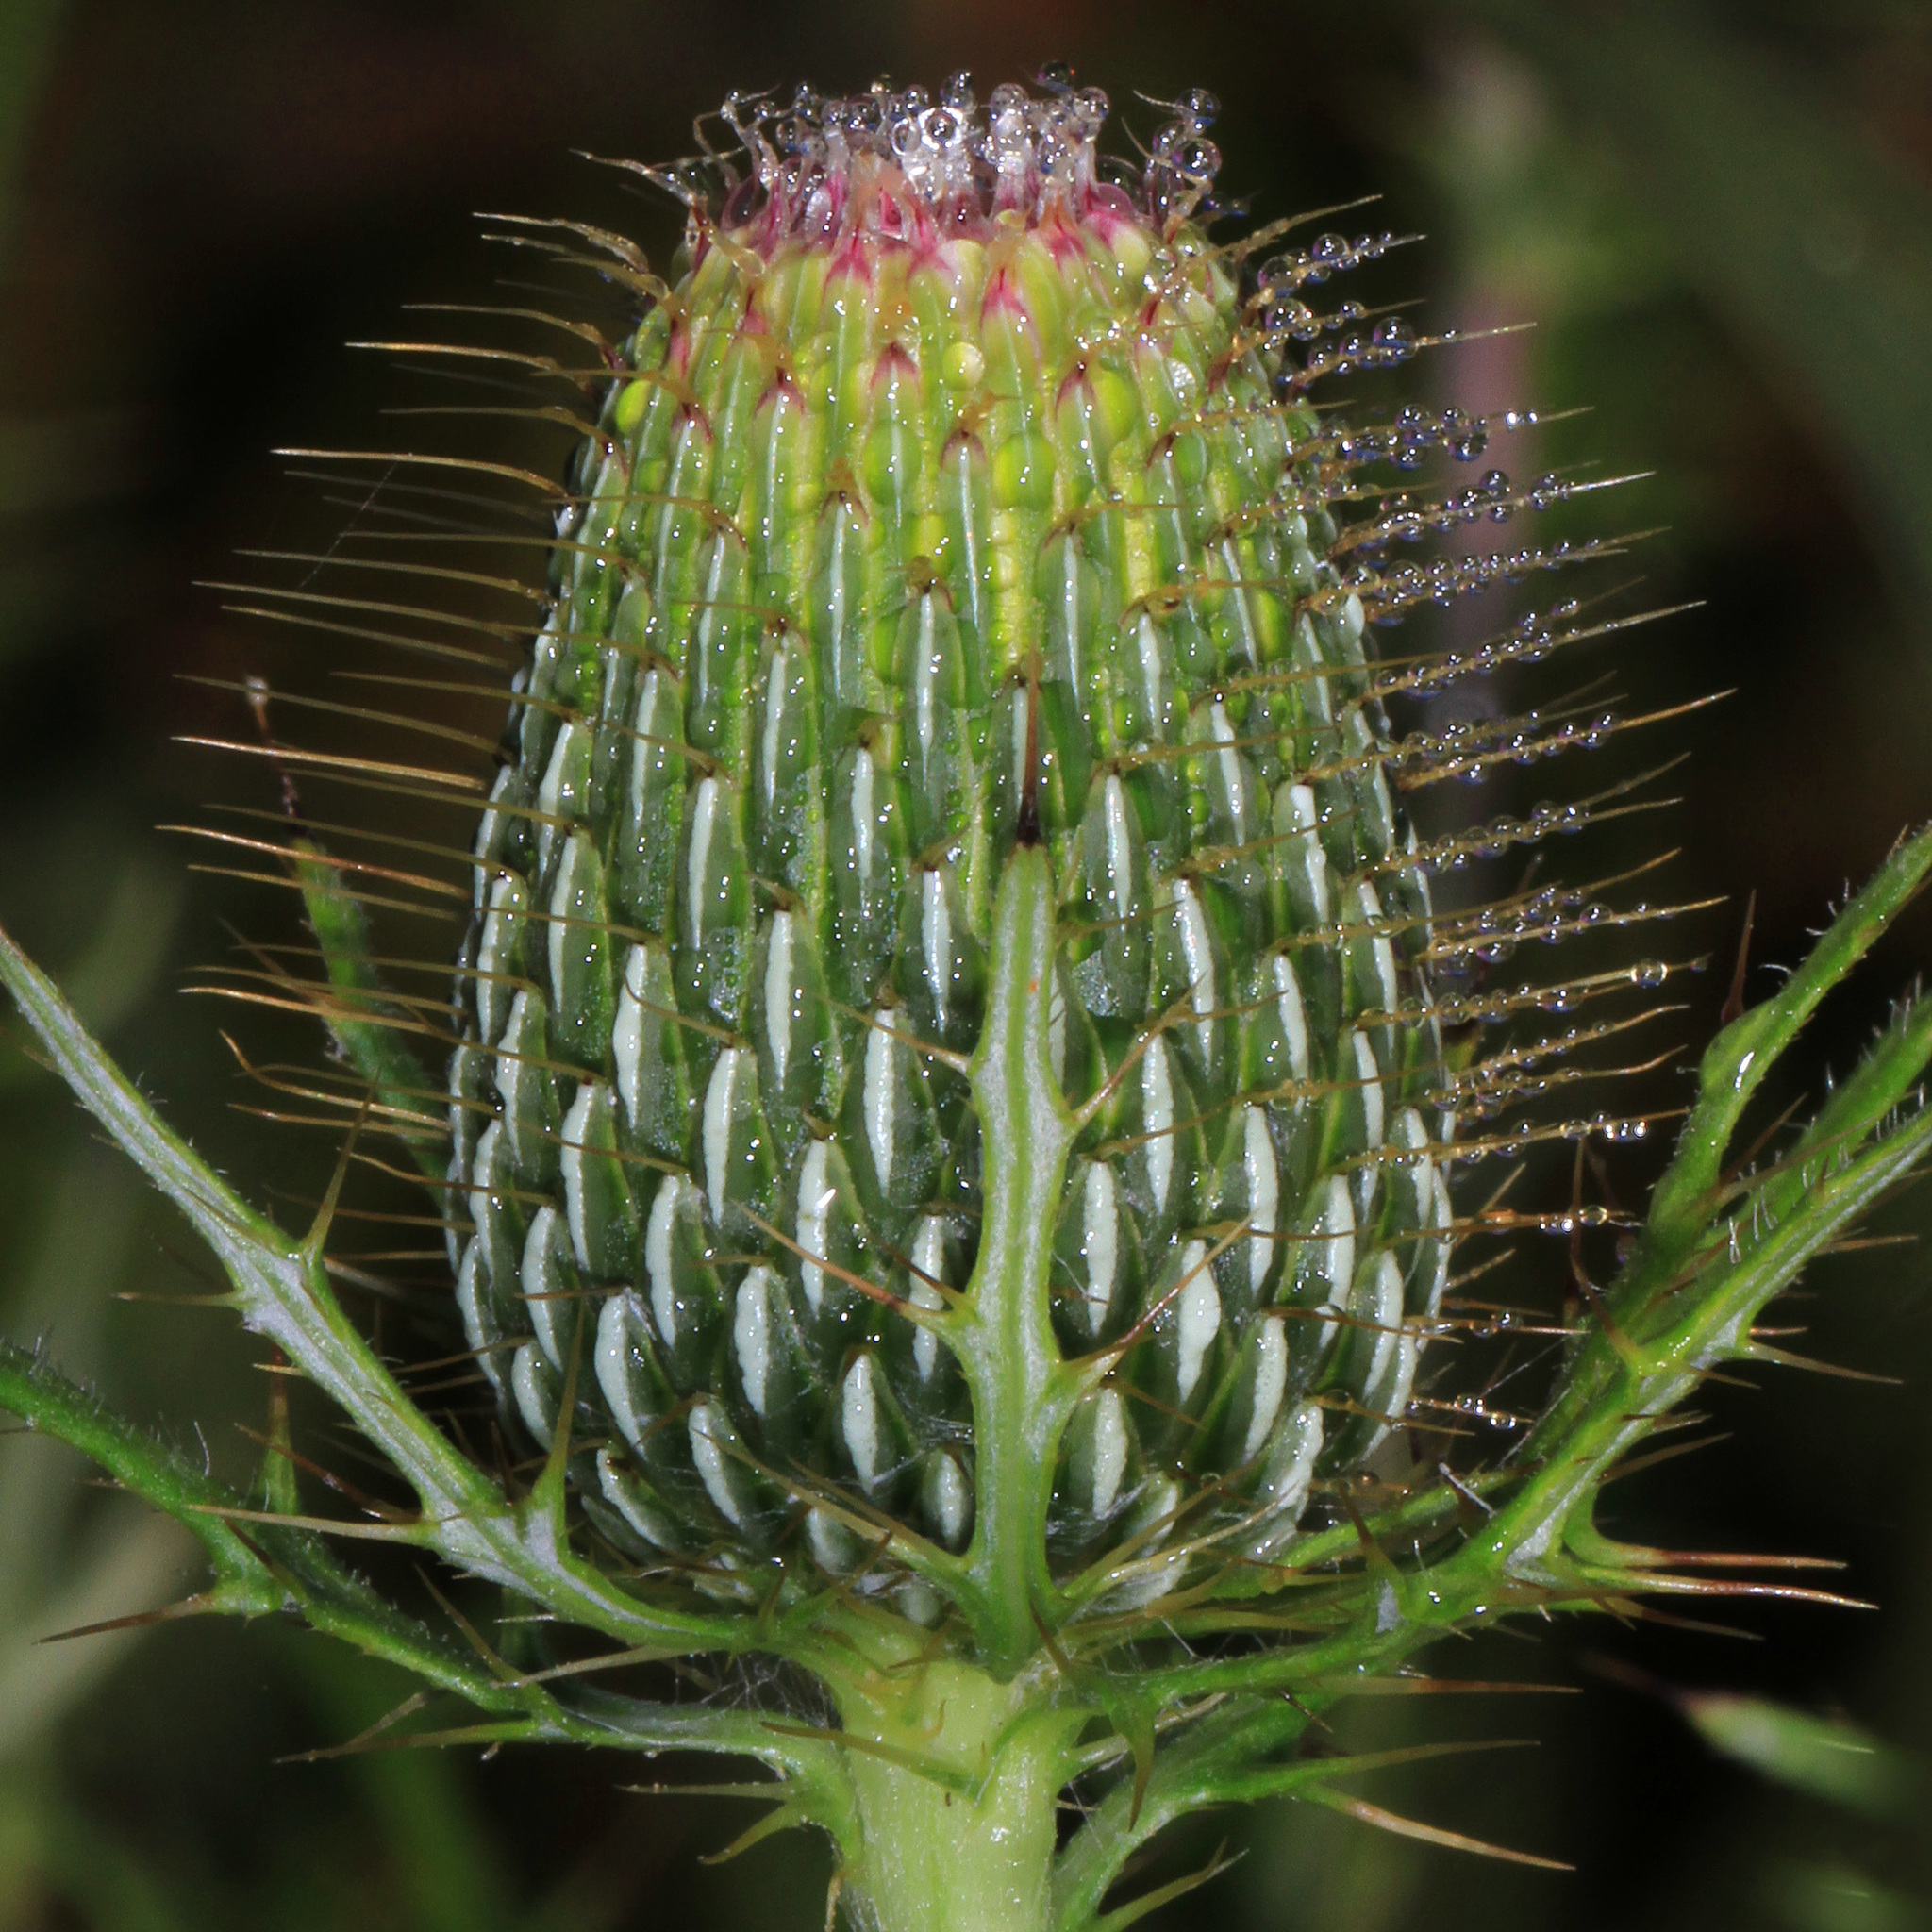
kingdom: Plantae
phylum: Tracheophyta
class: Magnoliopsida
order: Asterales
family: Asteraceae
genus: Cirsium
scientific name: Cirsium discolor
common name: Field thistle
